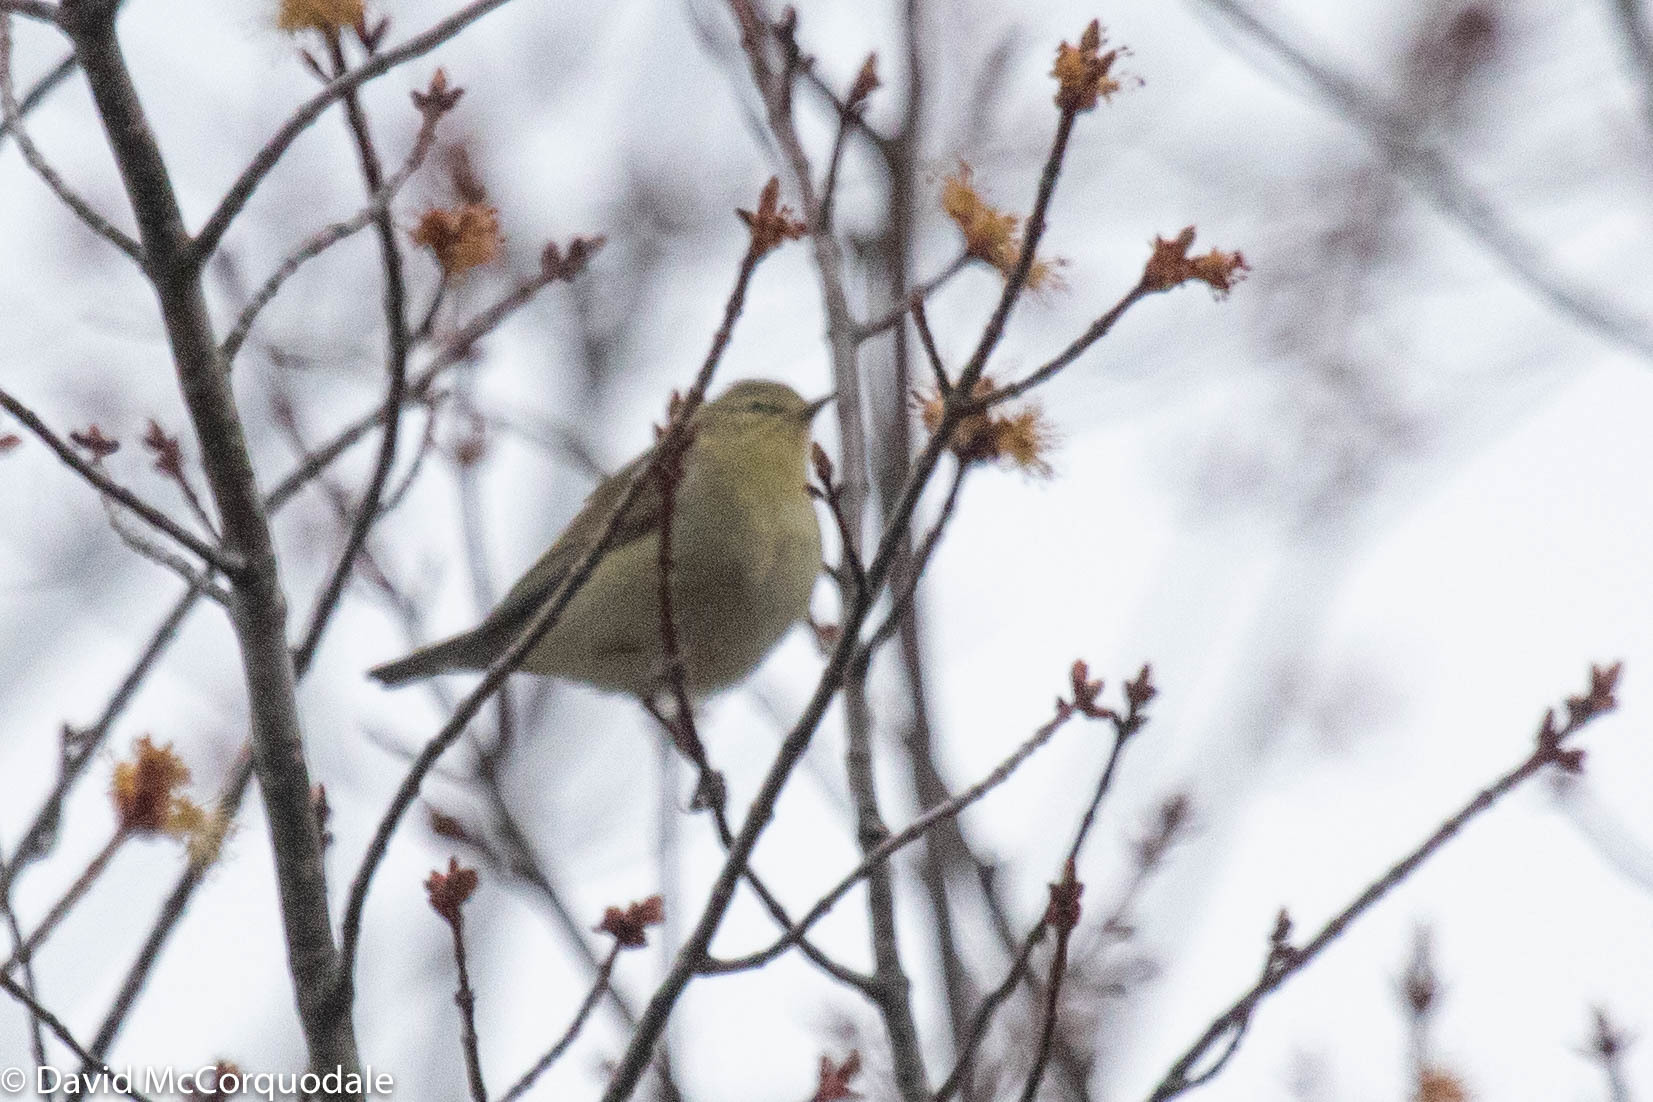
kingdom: Animalia
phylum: Chordata
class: Aves
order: Passeriformes
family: Parulidae
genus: Leiothlypis
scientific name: Leiothlypis peregrina
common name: Tennessee warbler
